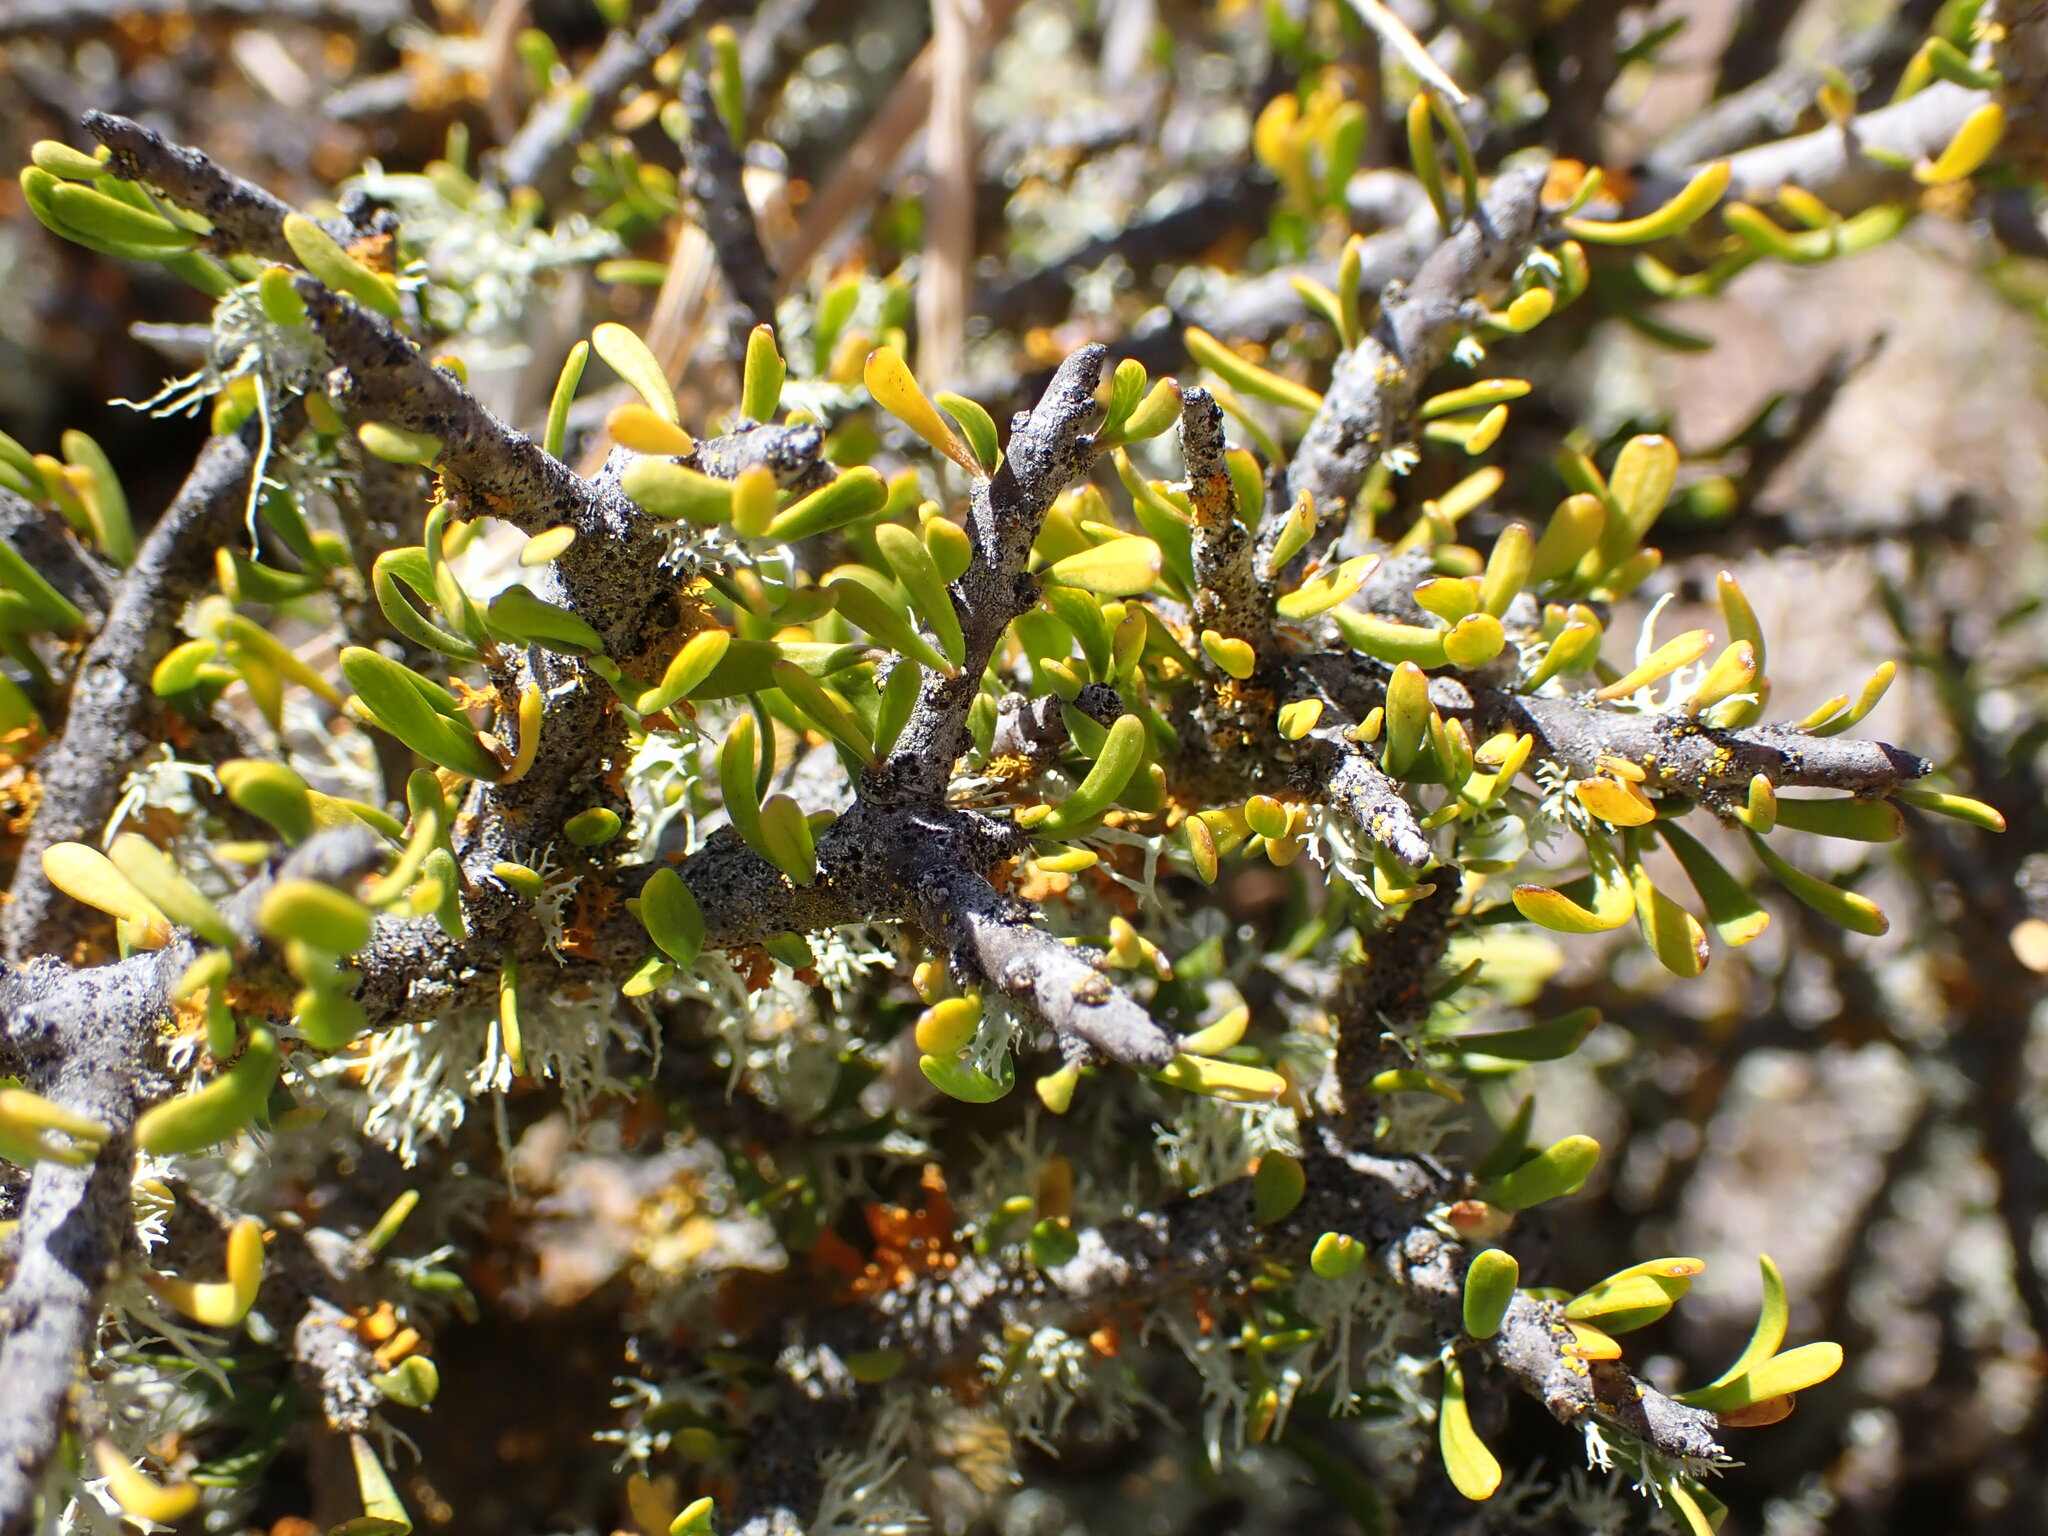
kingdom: Plantae
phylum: Tracheophyta
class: Magnoliopsida
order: Malpighiales
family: Violaceae
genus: Melicytus
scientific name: Melicytus alpinus
